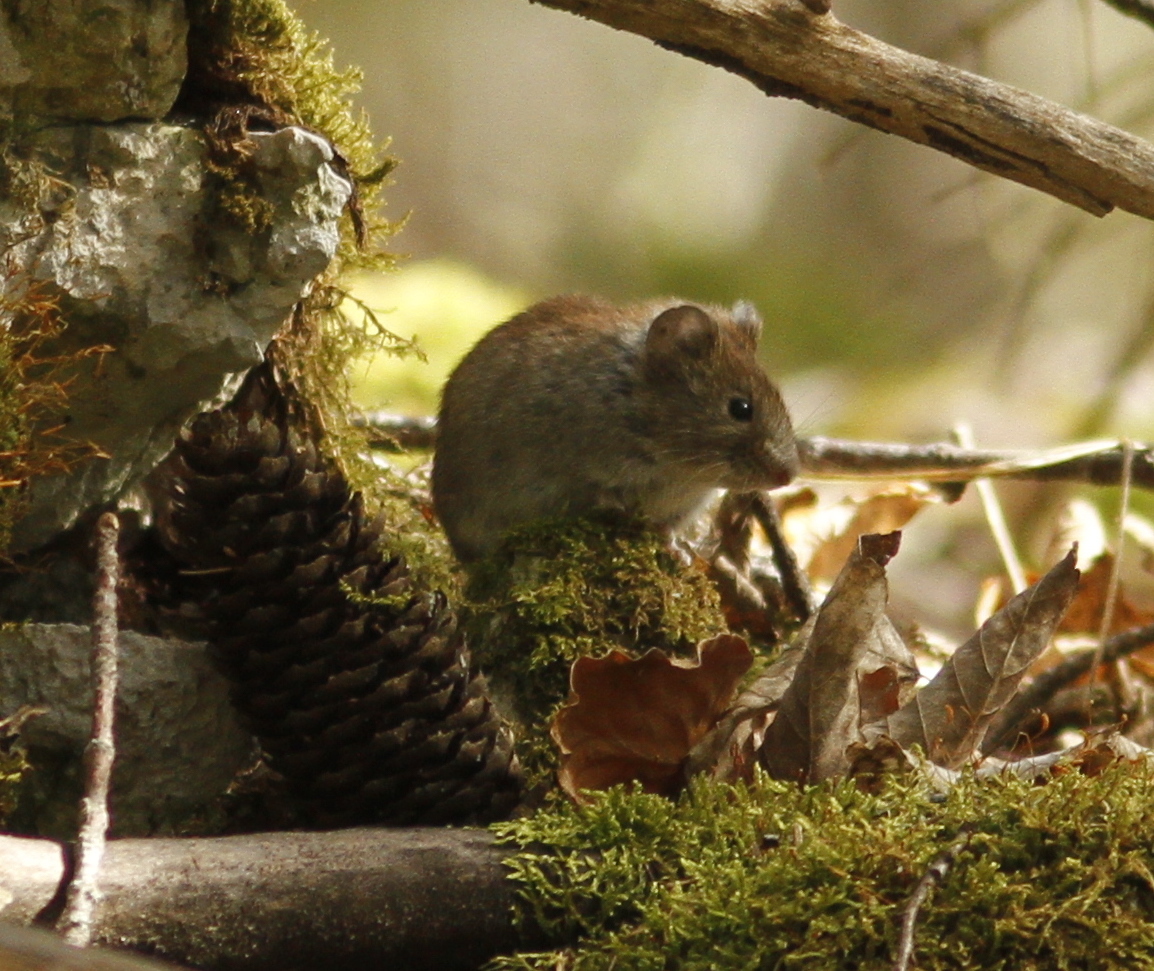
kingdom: Animalia
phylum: Chordata
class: Mammalia
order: Rodentia
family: Cricetidae
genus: Myodes
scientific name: Myodes glareolus
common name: Bank vole
